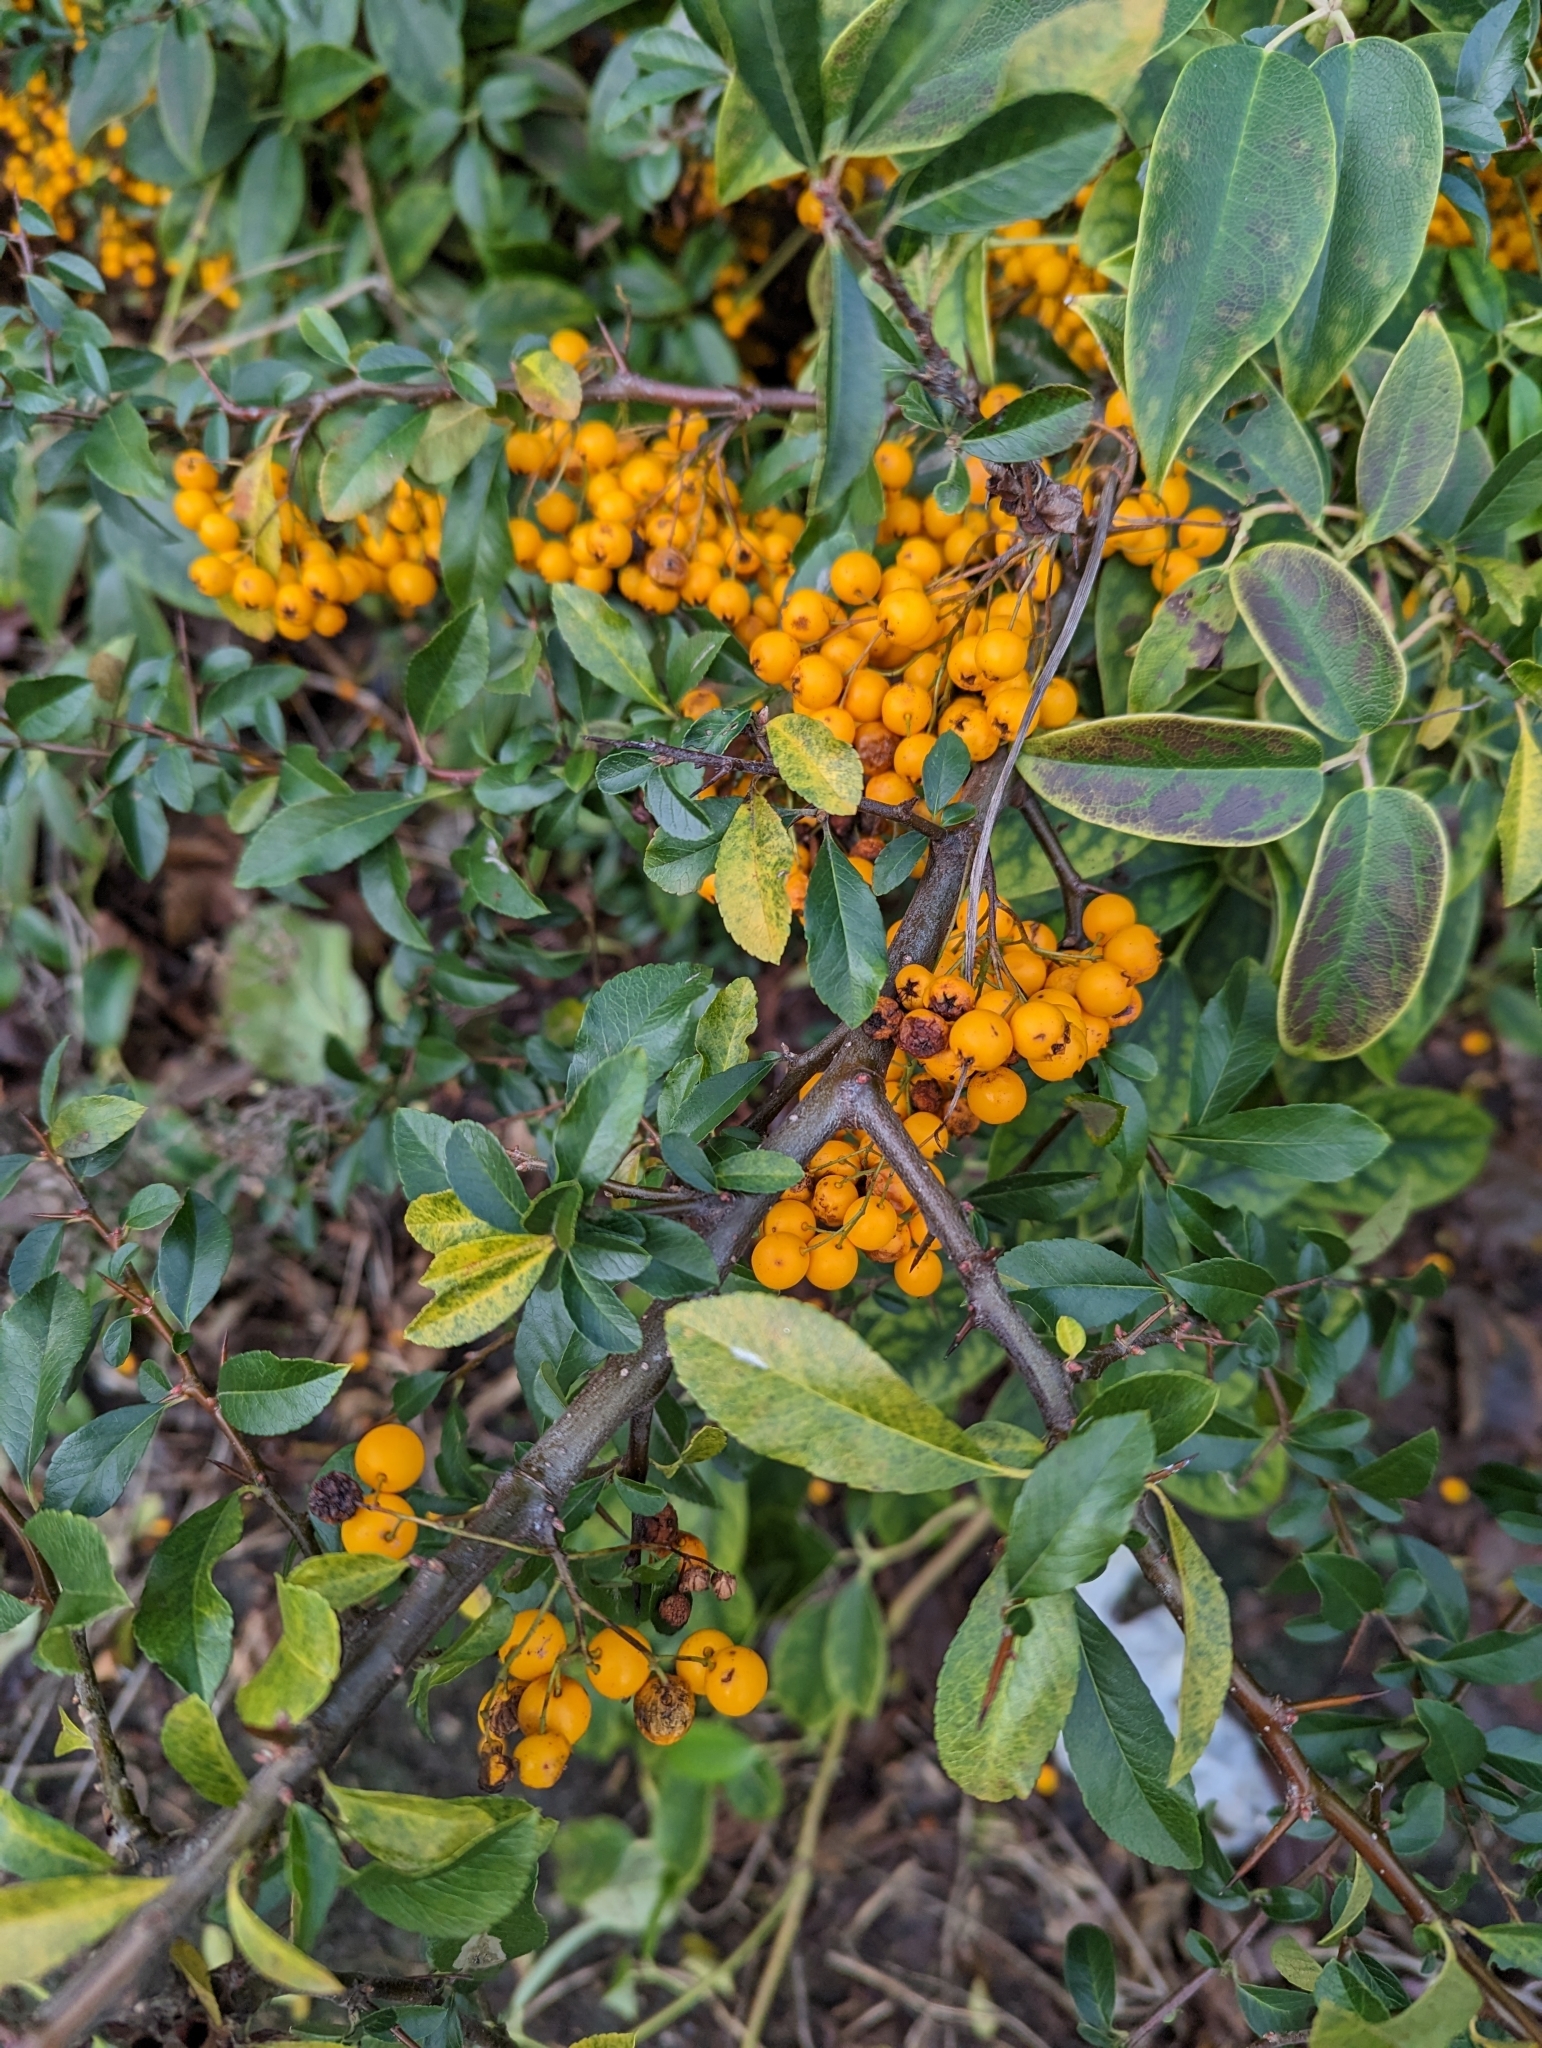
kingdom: Plantae
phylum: Tracheophyta
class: Magnoliopsida
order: Rosales
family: Rosaceae
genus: Pyracantha
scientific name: Pyracantha coccinea
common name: Firethorn
